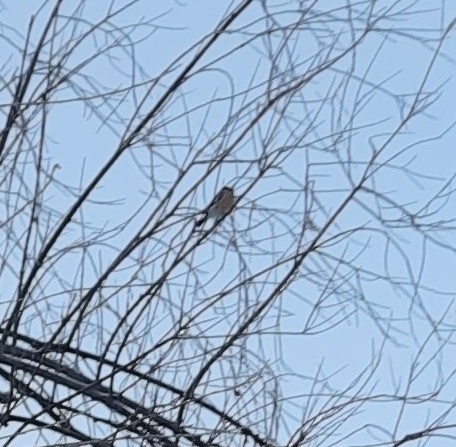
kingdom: Animalia
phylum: Chordata
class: Aves
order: Passeriformes
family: Fringillidae
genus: Pyrrhula
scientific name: Pyrrhula pyrrhula
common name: Eurasian bullfinch
